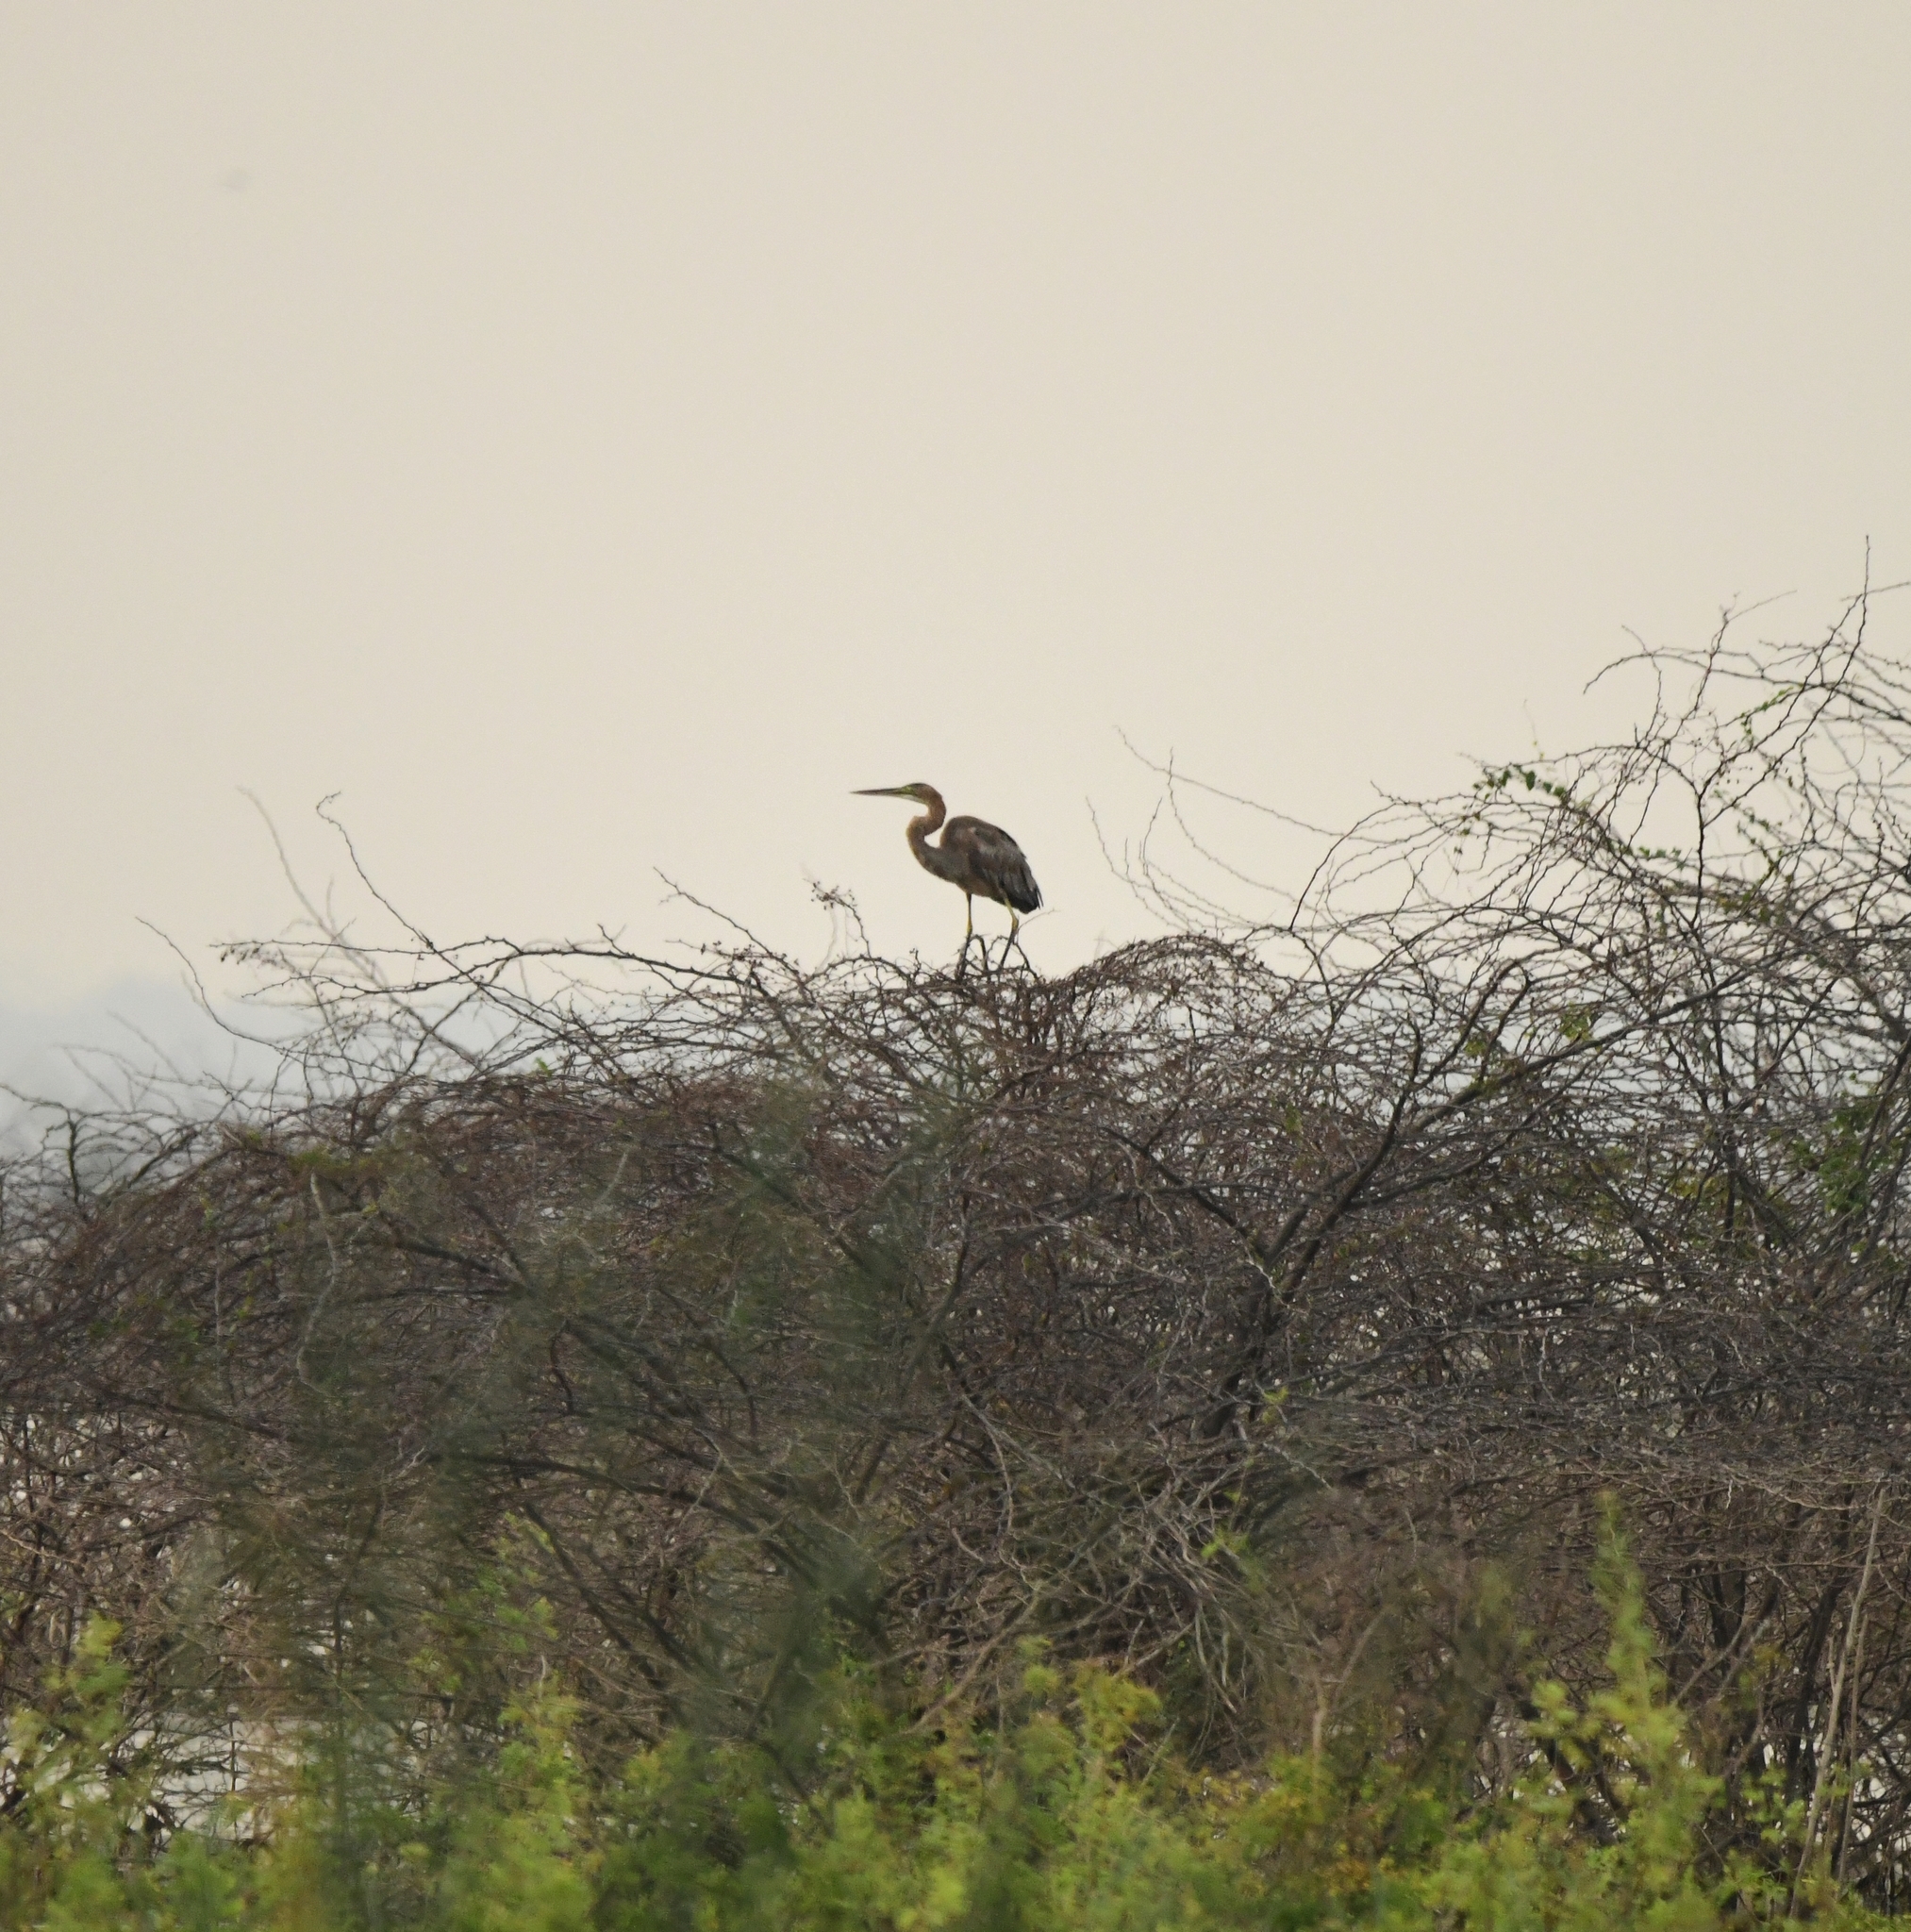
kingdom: Animalia
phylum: Chordata
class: Aves
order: Pelecaniformes
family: Ardeidae
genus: Ardea
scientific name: Ardea purpurea
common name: Purple heron
